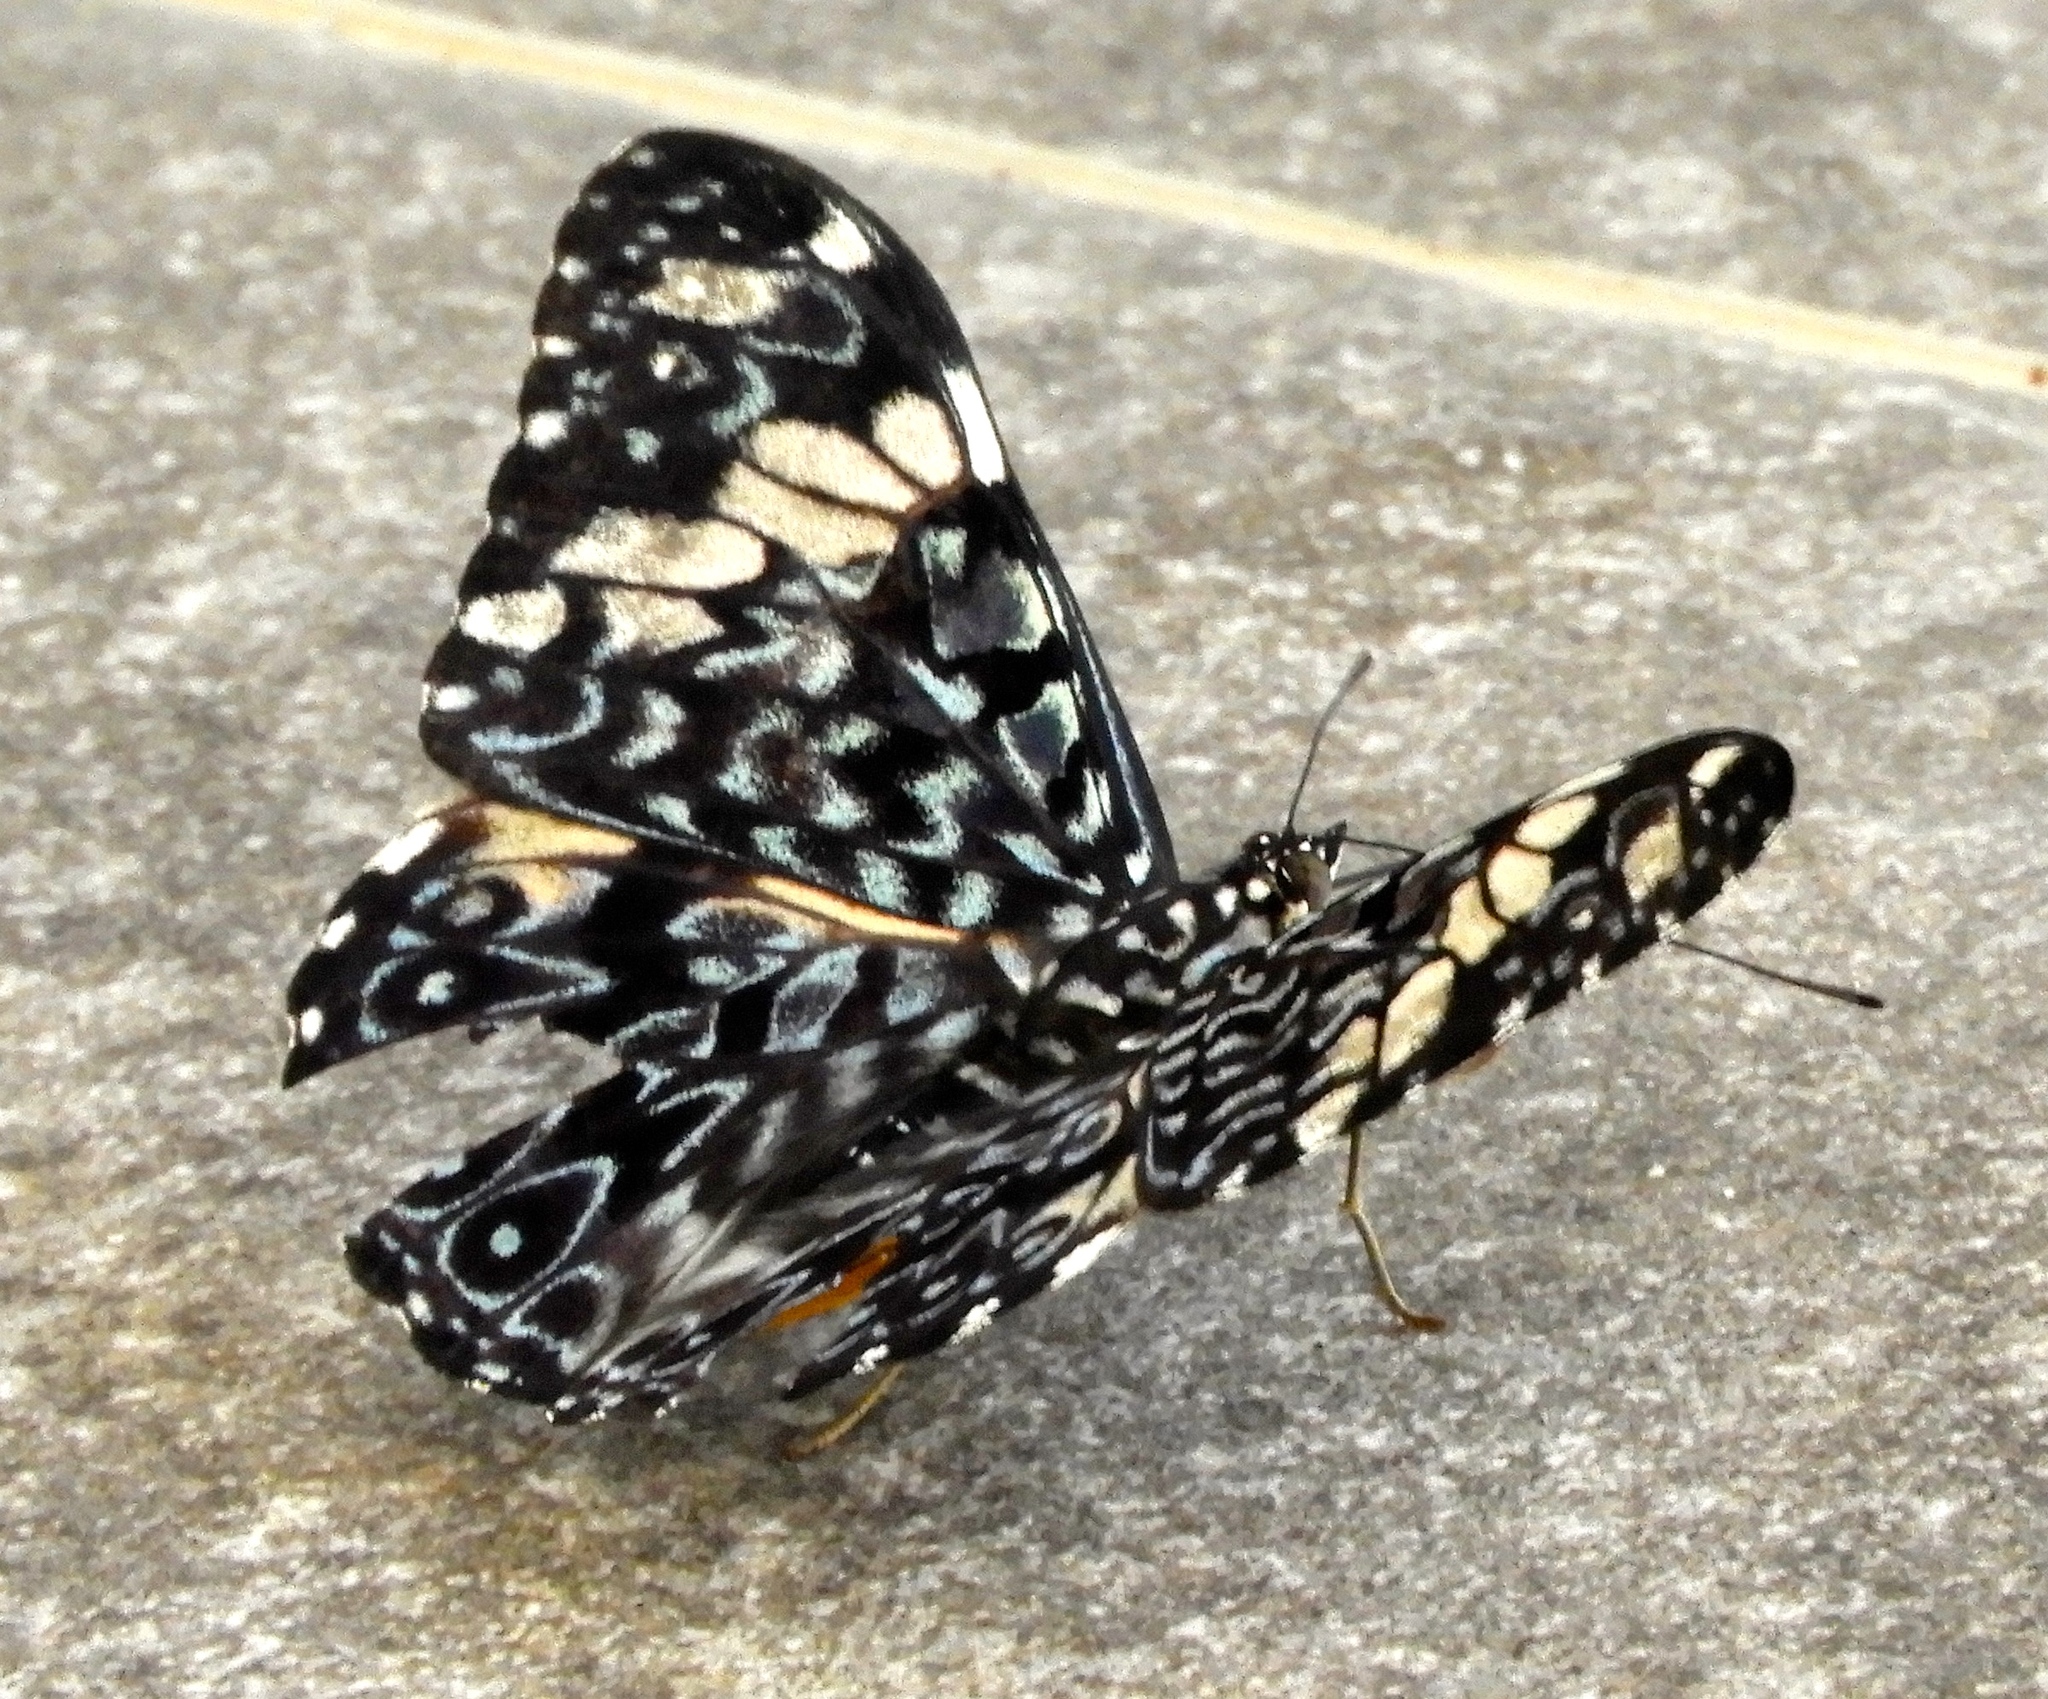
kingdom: Animalia
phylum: Arthropoda
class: Insecta
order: Lepidoptera
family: Nymphalidae
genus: Hamadryas
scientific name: Hamadryas amphinome
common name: Red cracker
